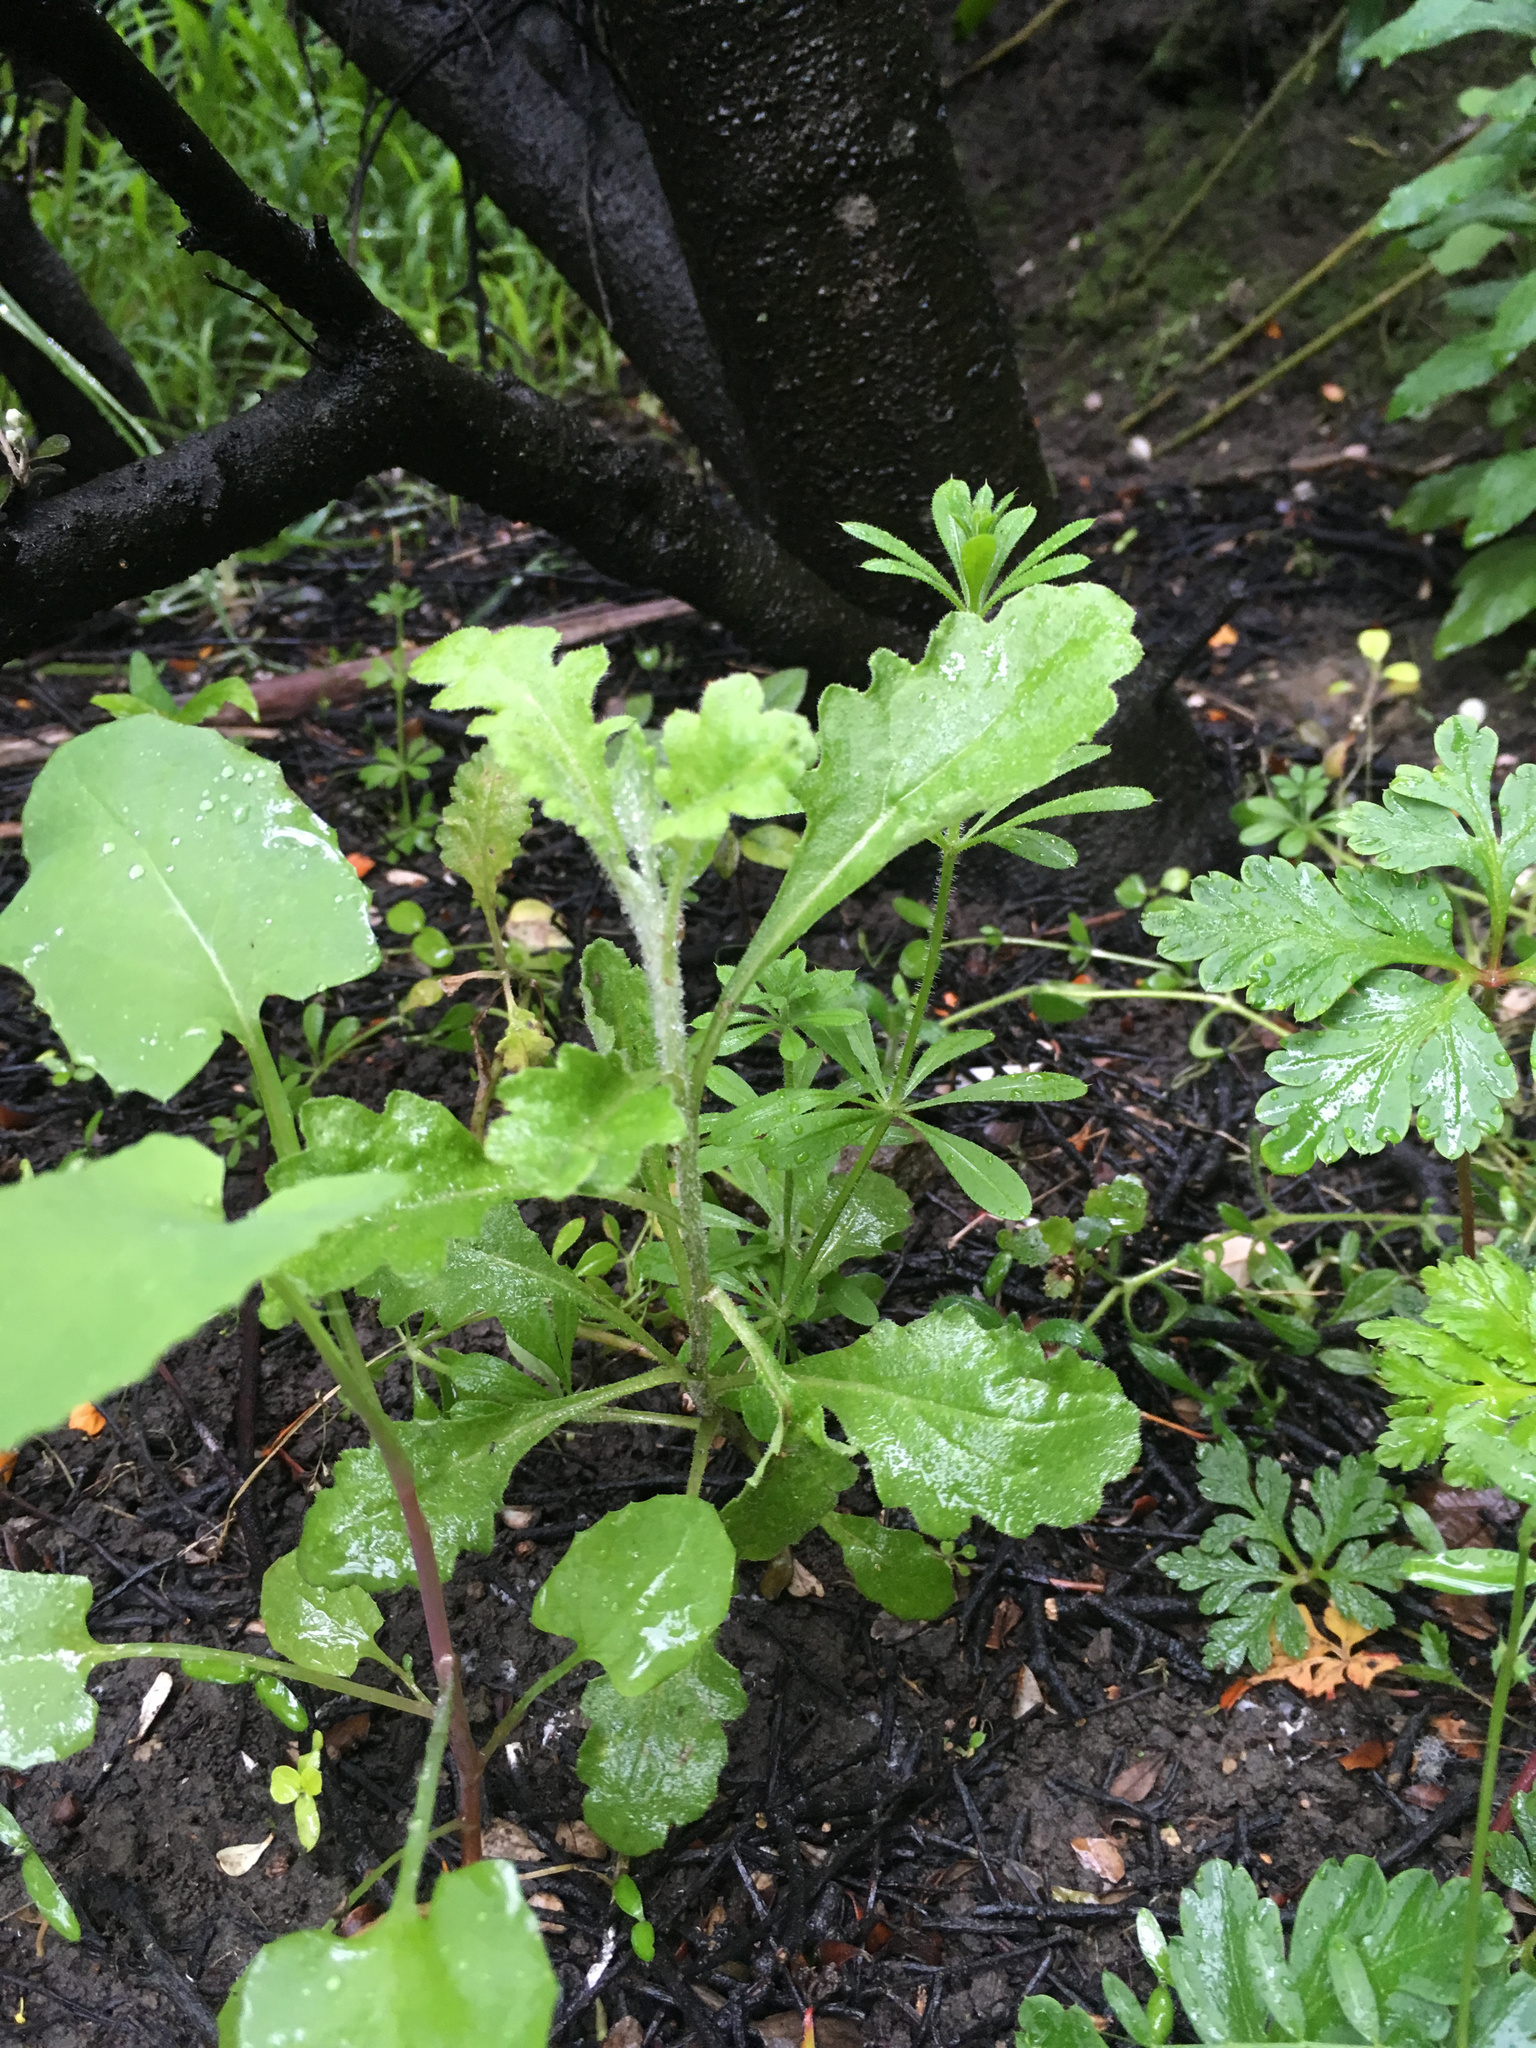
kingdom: Plantae
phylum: Tracheophyta
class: Magnoliopsida
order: Asterales
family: Asteraceae
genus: Senecio
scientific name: Senecio glomeratus
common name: Cutleaf burnweed
